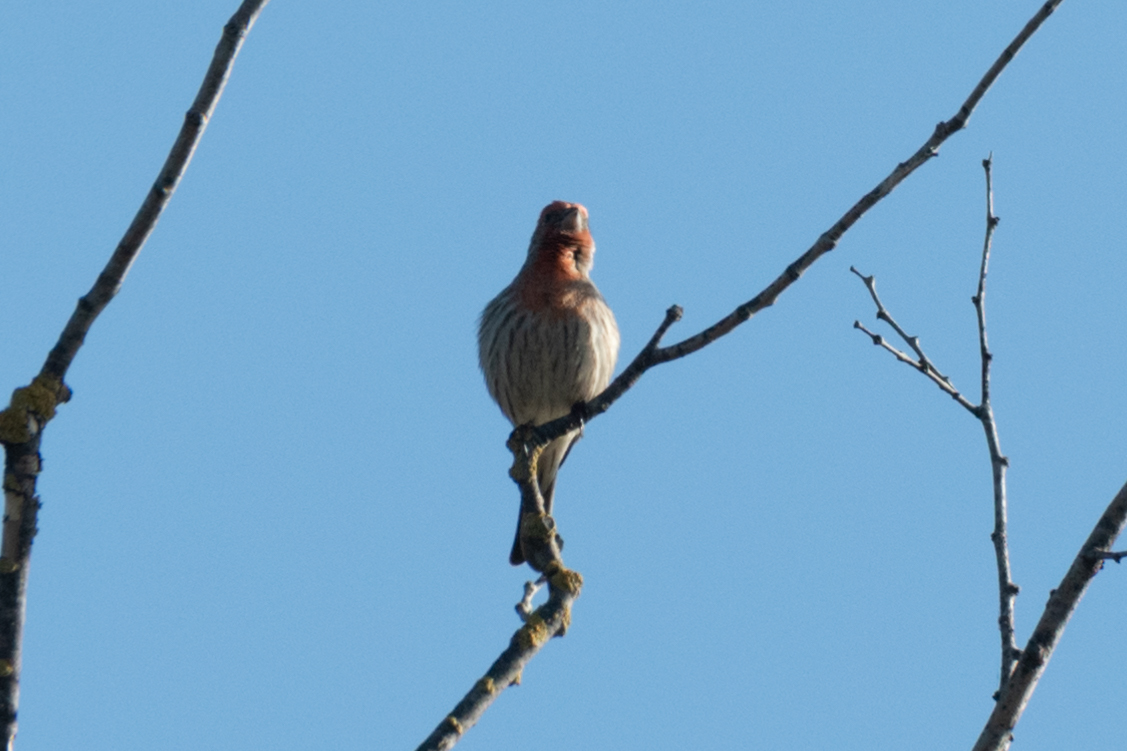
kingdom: Animalia
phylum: Chordata
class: Aves
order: Passeriformes
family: Fringillidae
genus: Haemorhous
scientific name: Haemorhous mexicanus
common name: House finch
